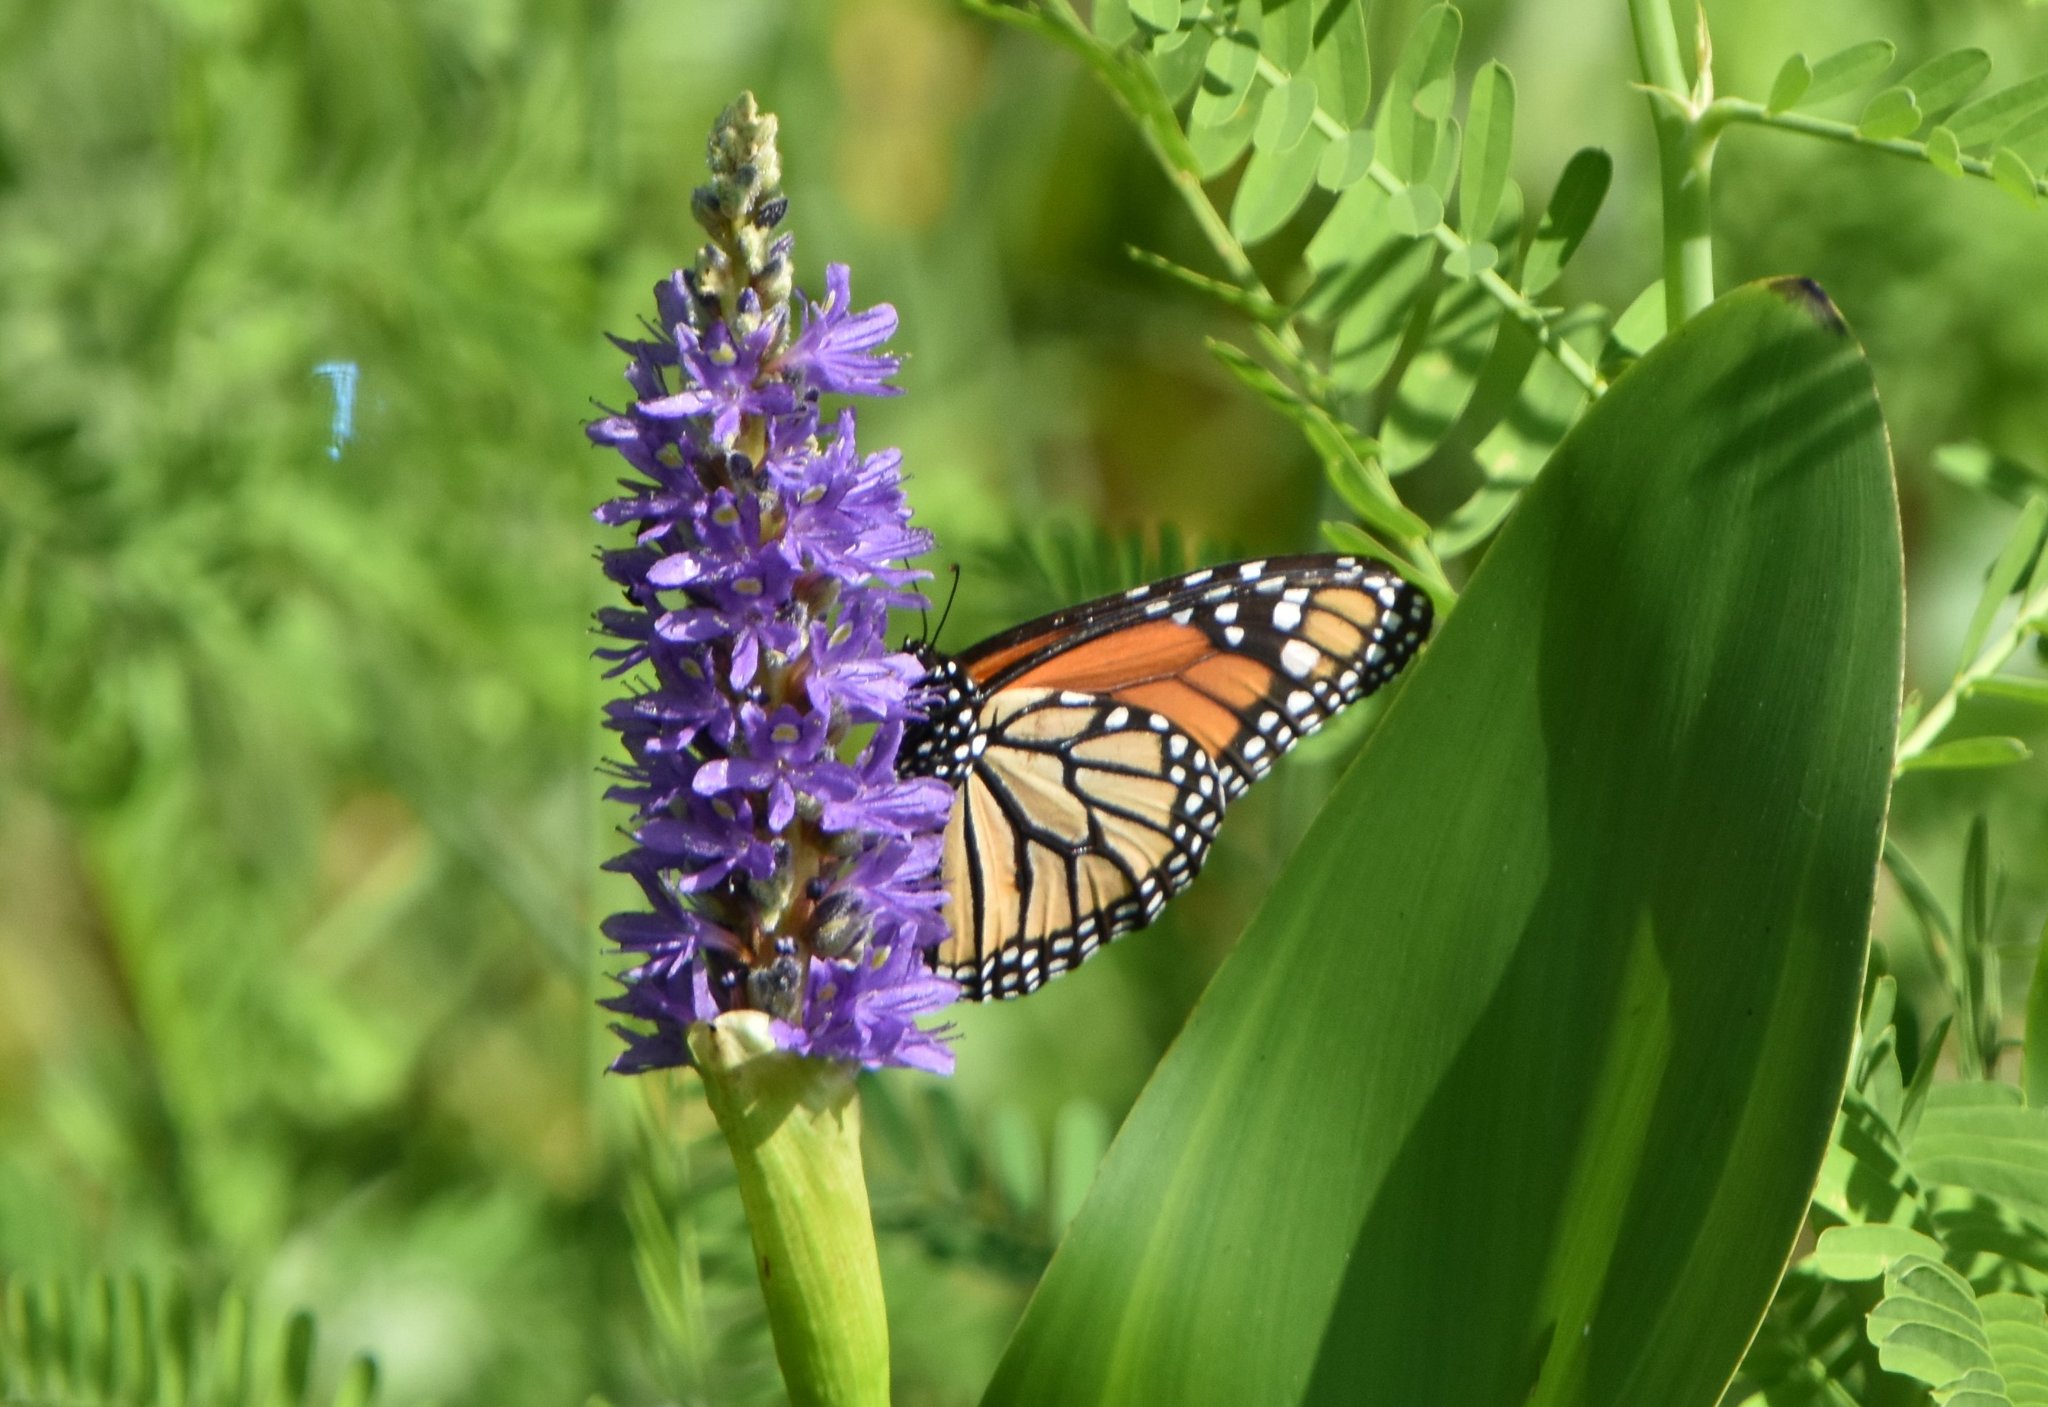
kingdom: Animalia
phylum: Arthropoda
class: Insecta
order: Lepidoptera
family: Nymphalidae
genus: Danaus
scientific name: Danaus plexippus
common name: Monarch
